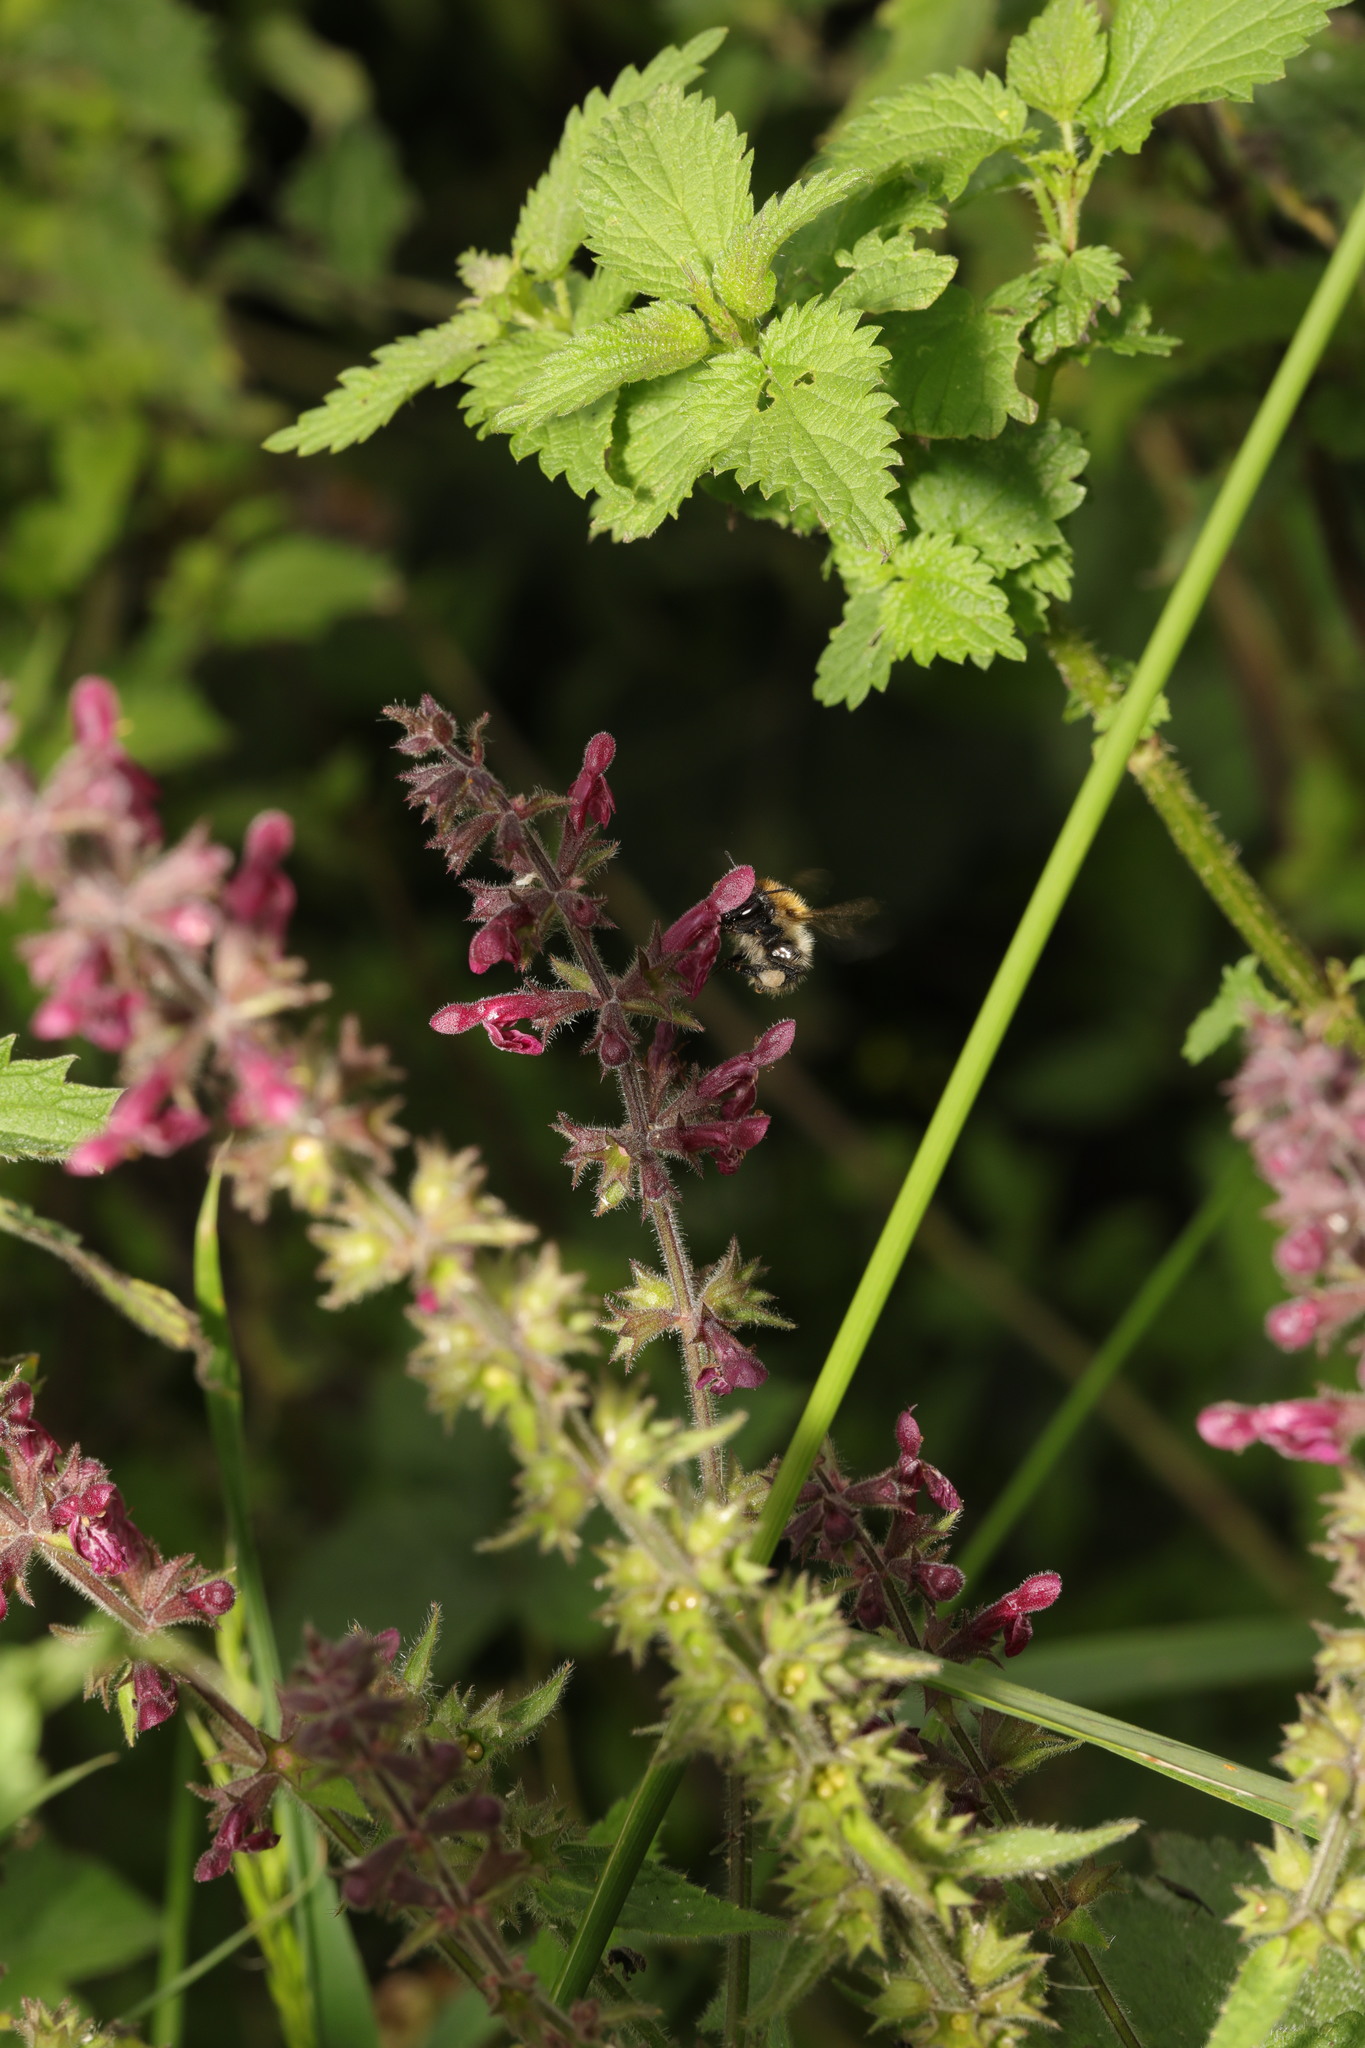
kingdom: Animalia
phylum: Arthropoda
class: Insecta
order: Hymenoptera
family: Apidae
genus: Bombus
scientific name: Bombus pascuorum
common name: Common carder bee
